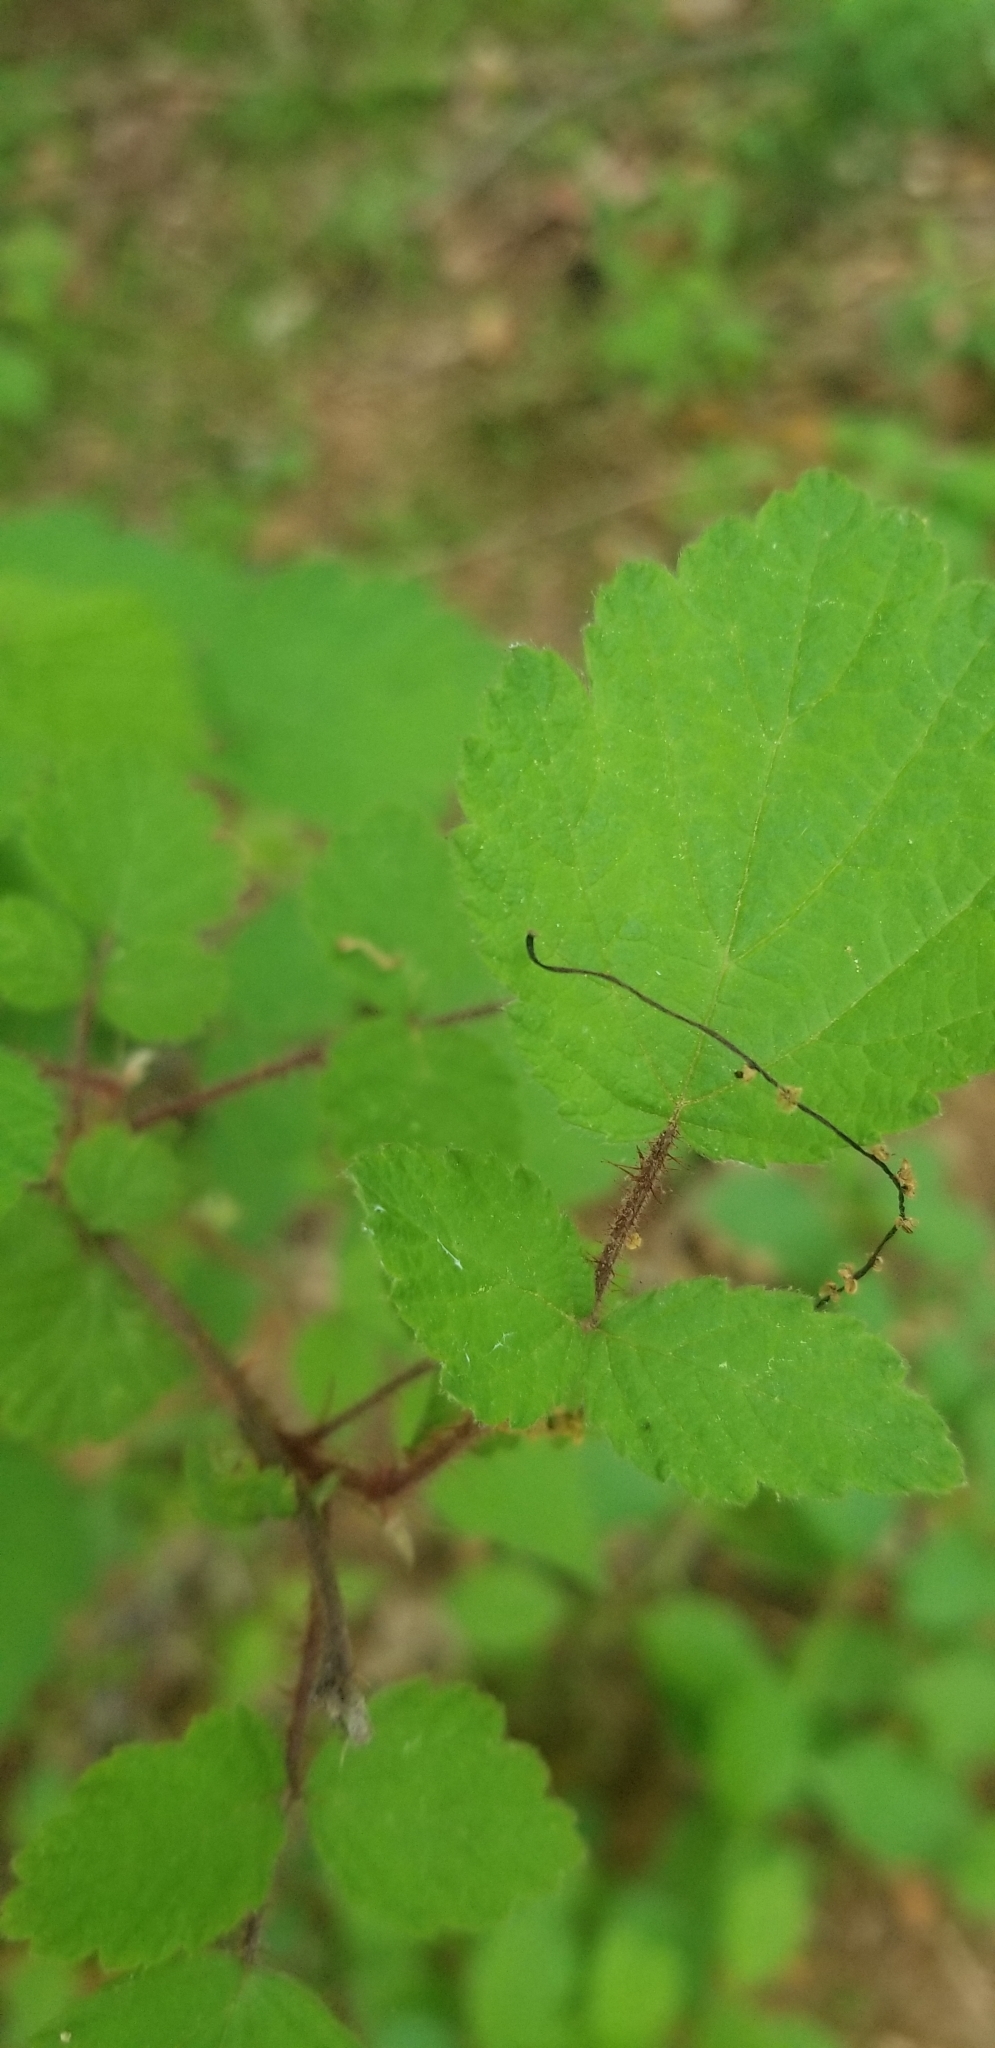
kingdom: Plantae
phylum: Tracheophyta
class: Magnoliopsida
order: Rosales
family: Rosaceae
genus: Rubus
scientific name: Rubus phoenicolasius
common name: Japanese wineberry
